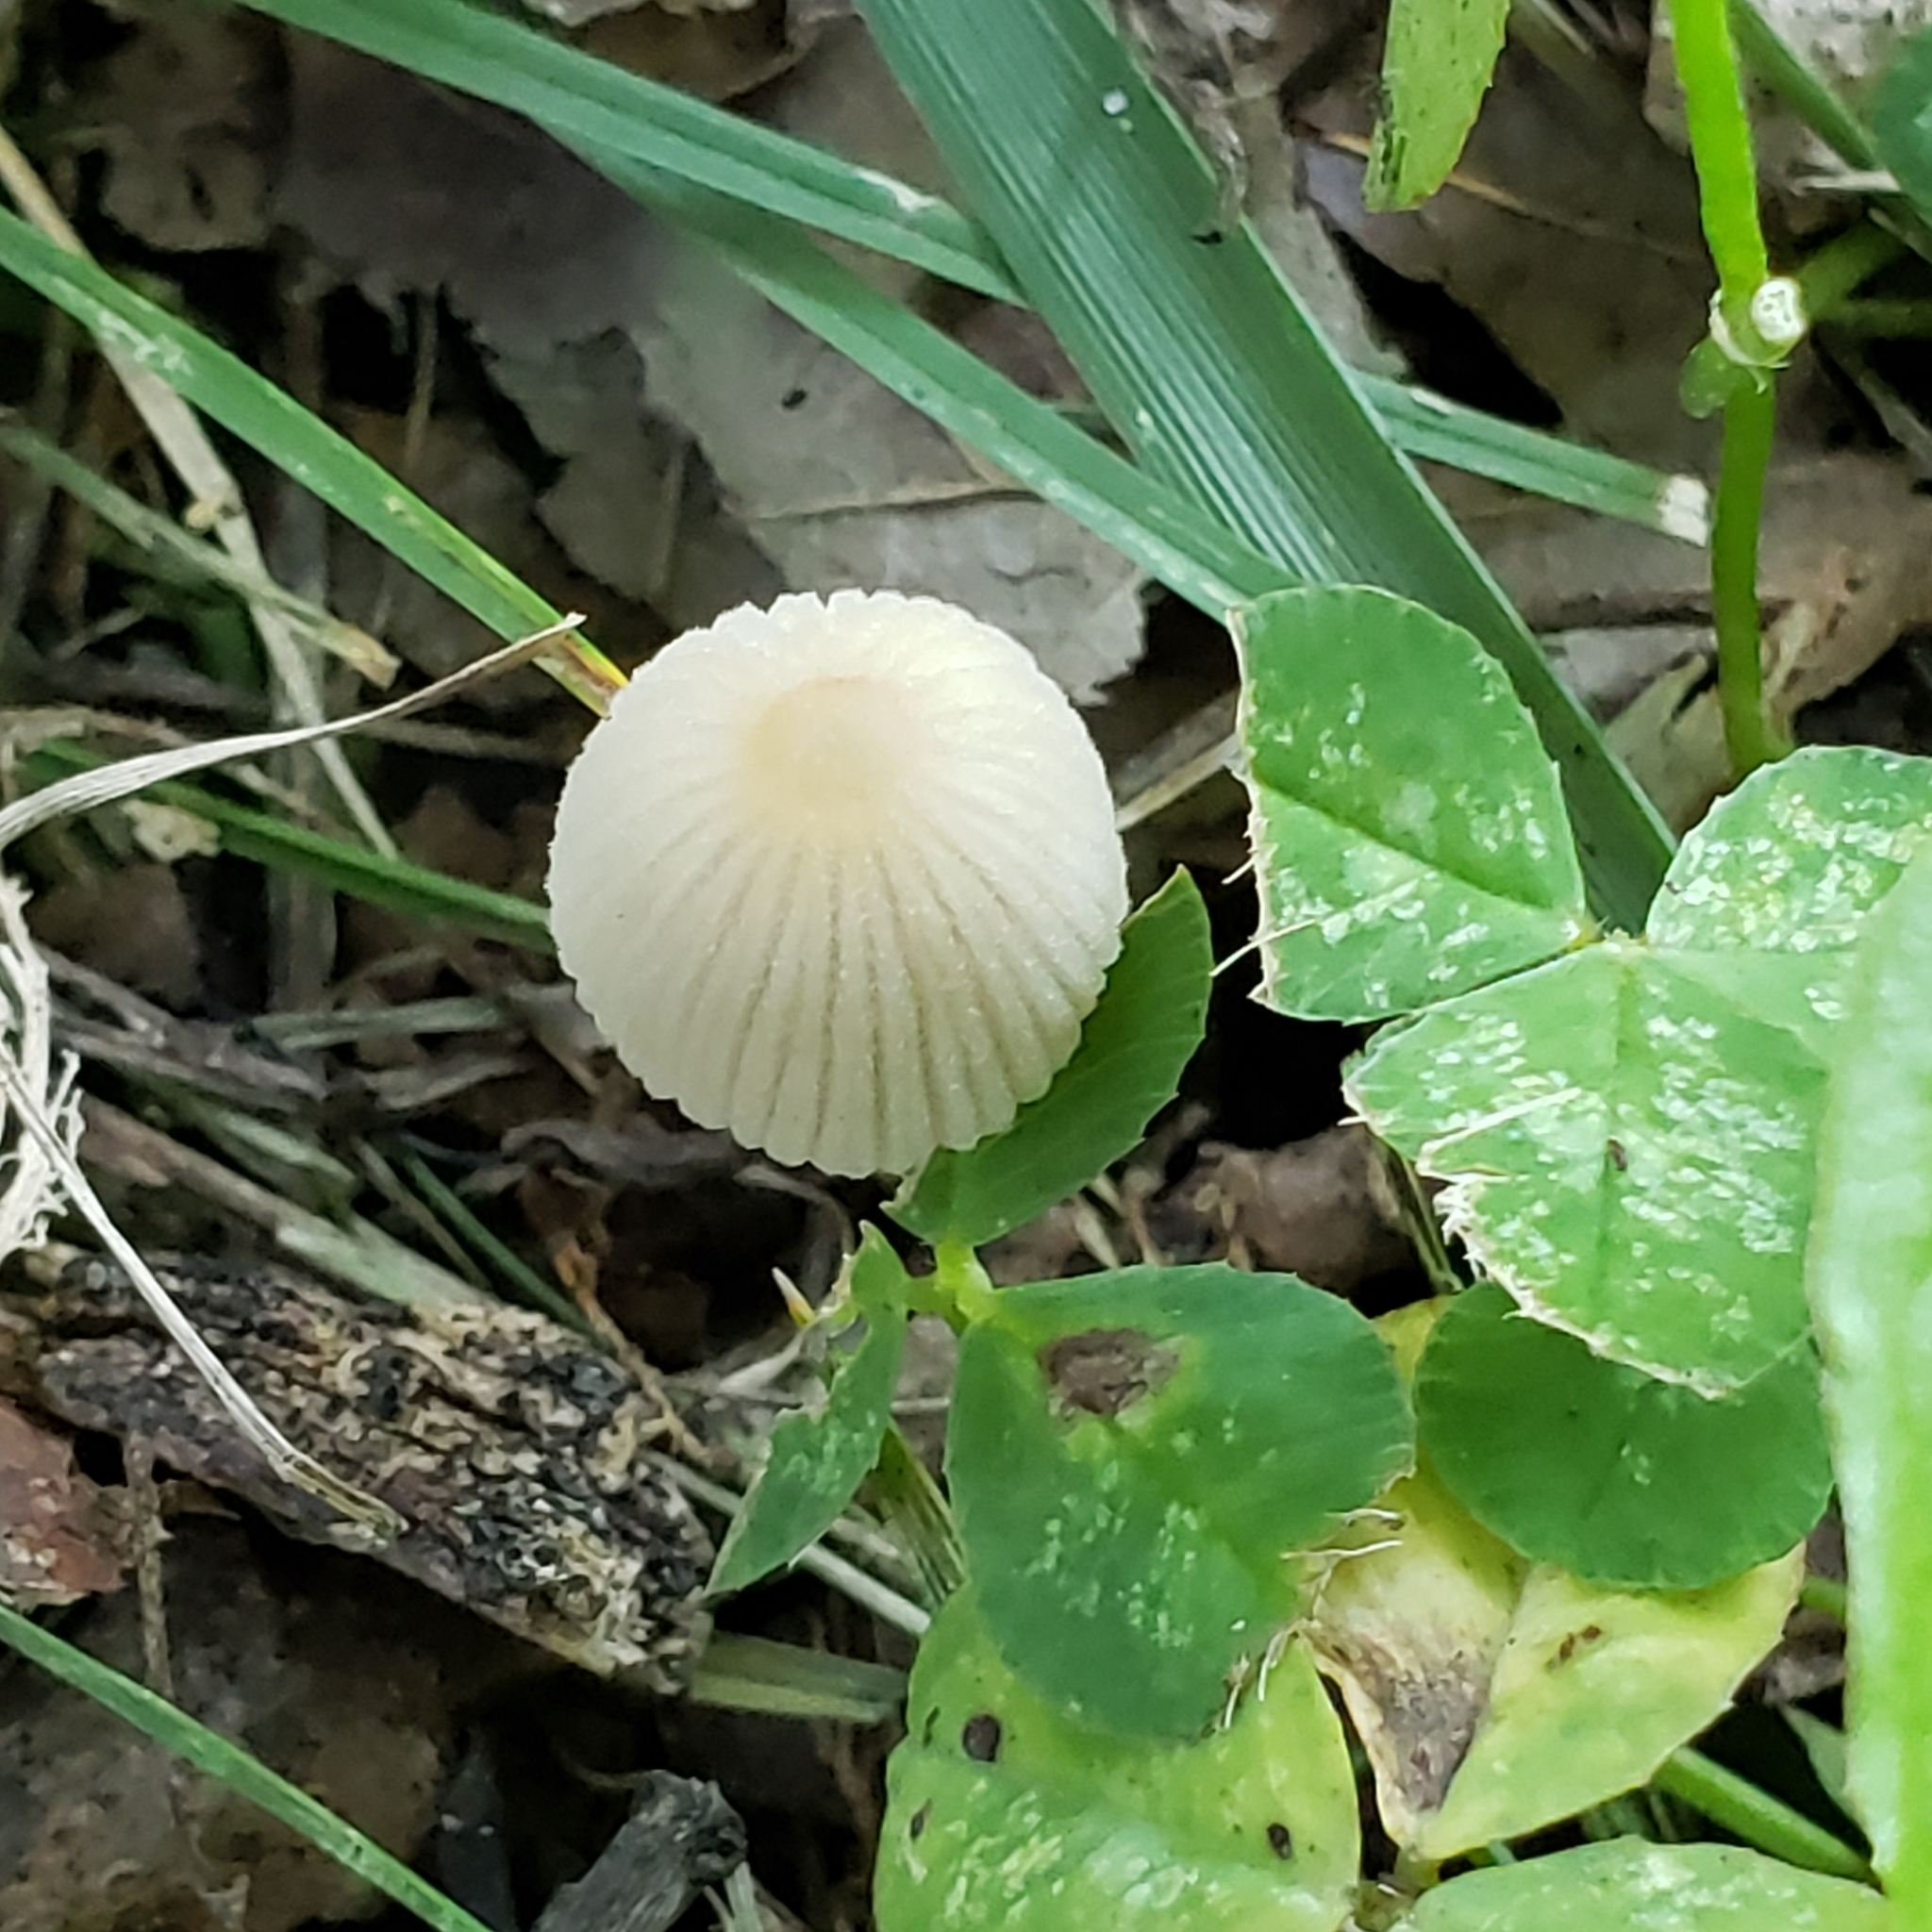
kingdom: Fungi
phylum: Basidiomycota
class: Agaricomycetes
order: Agaricales
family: Psathyrellaceae
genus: Coprinellus
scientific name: Coprinellus disseminatus
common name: Fairies' bonnets
